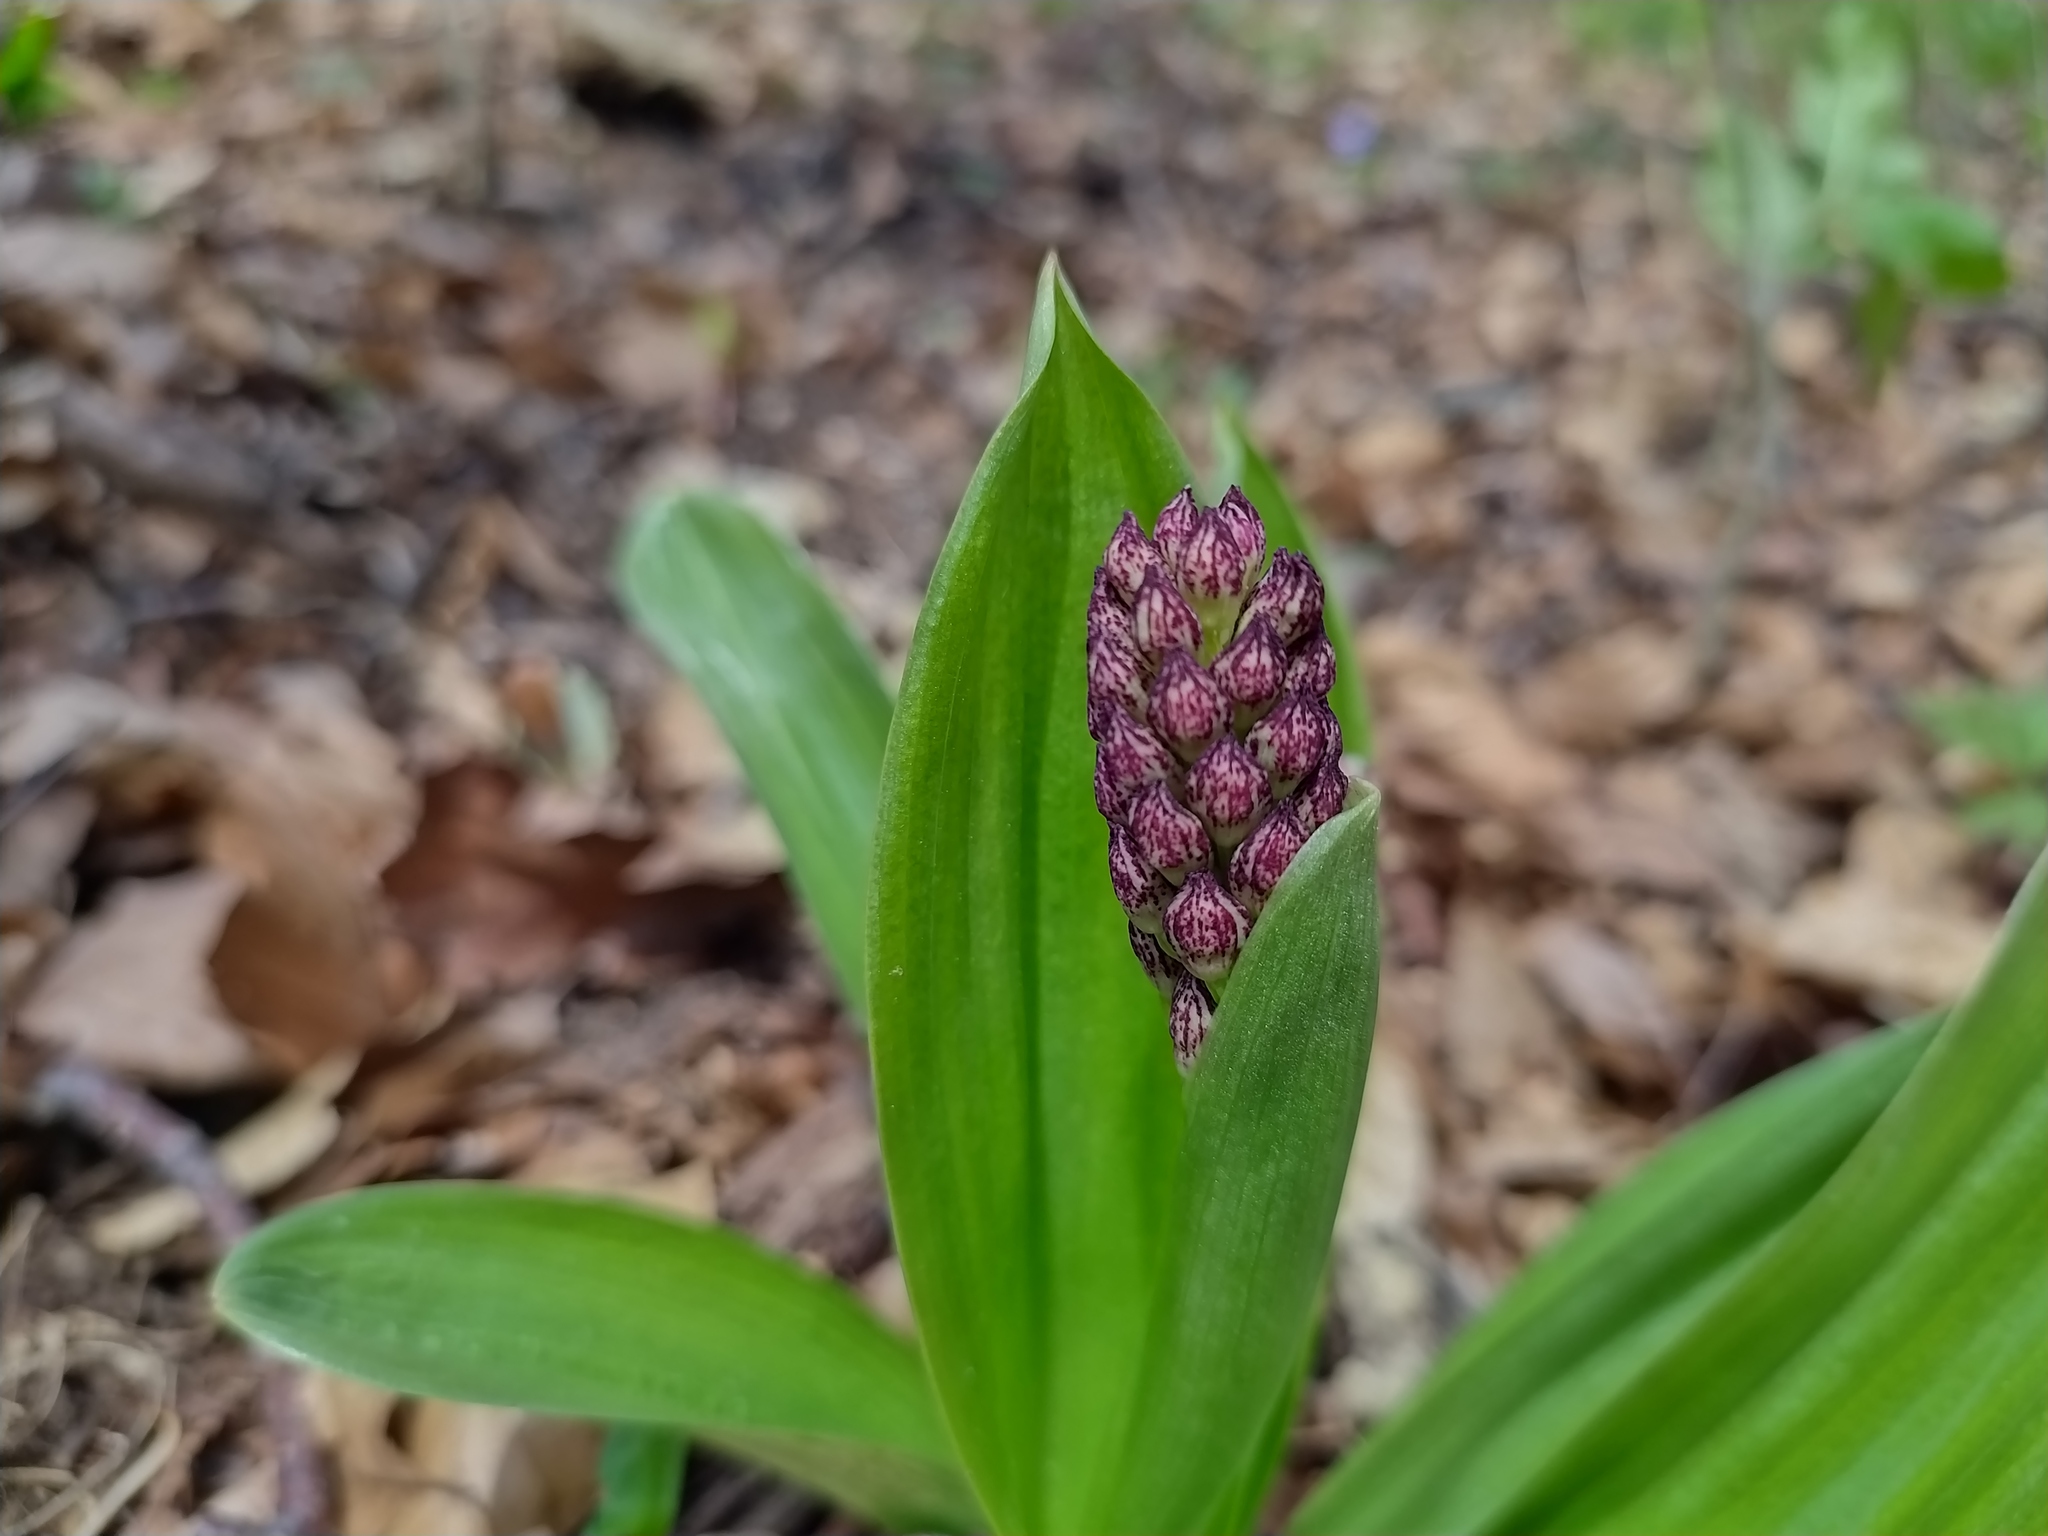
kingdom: Plantae
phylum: Tracheophyta
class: Liliopsida
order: Asparagales
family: Orchidaceae
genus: Orchis
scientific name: Orchis purpurea
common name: Lady orchid
